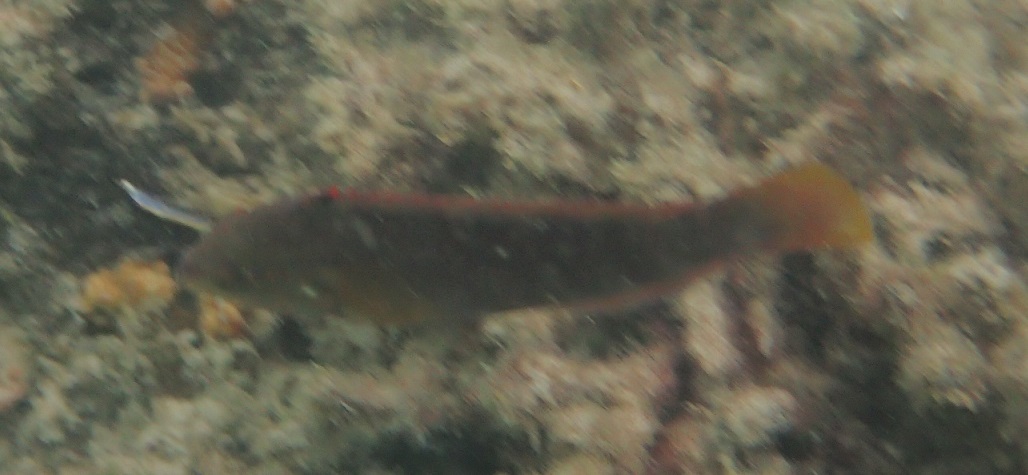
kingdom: Animalia
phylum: Chordata
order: Perciformes
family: Labridae
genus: Pseudolabrus
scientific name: Pseudolabrus guentheri
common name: Günther's wrasse
